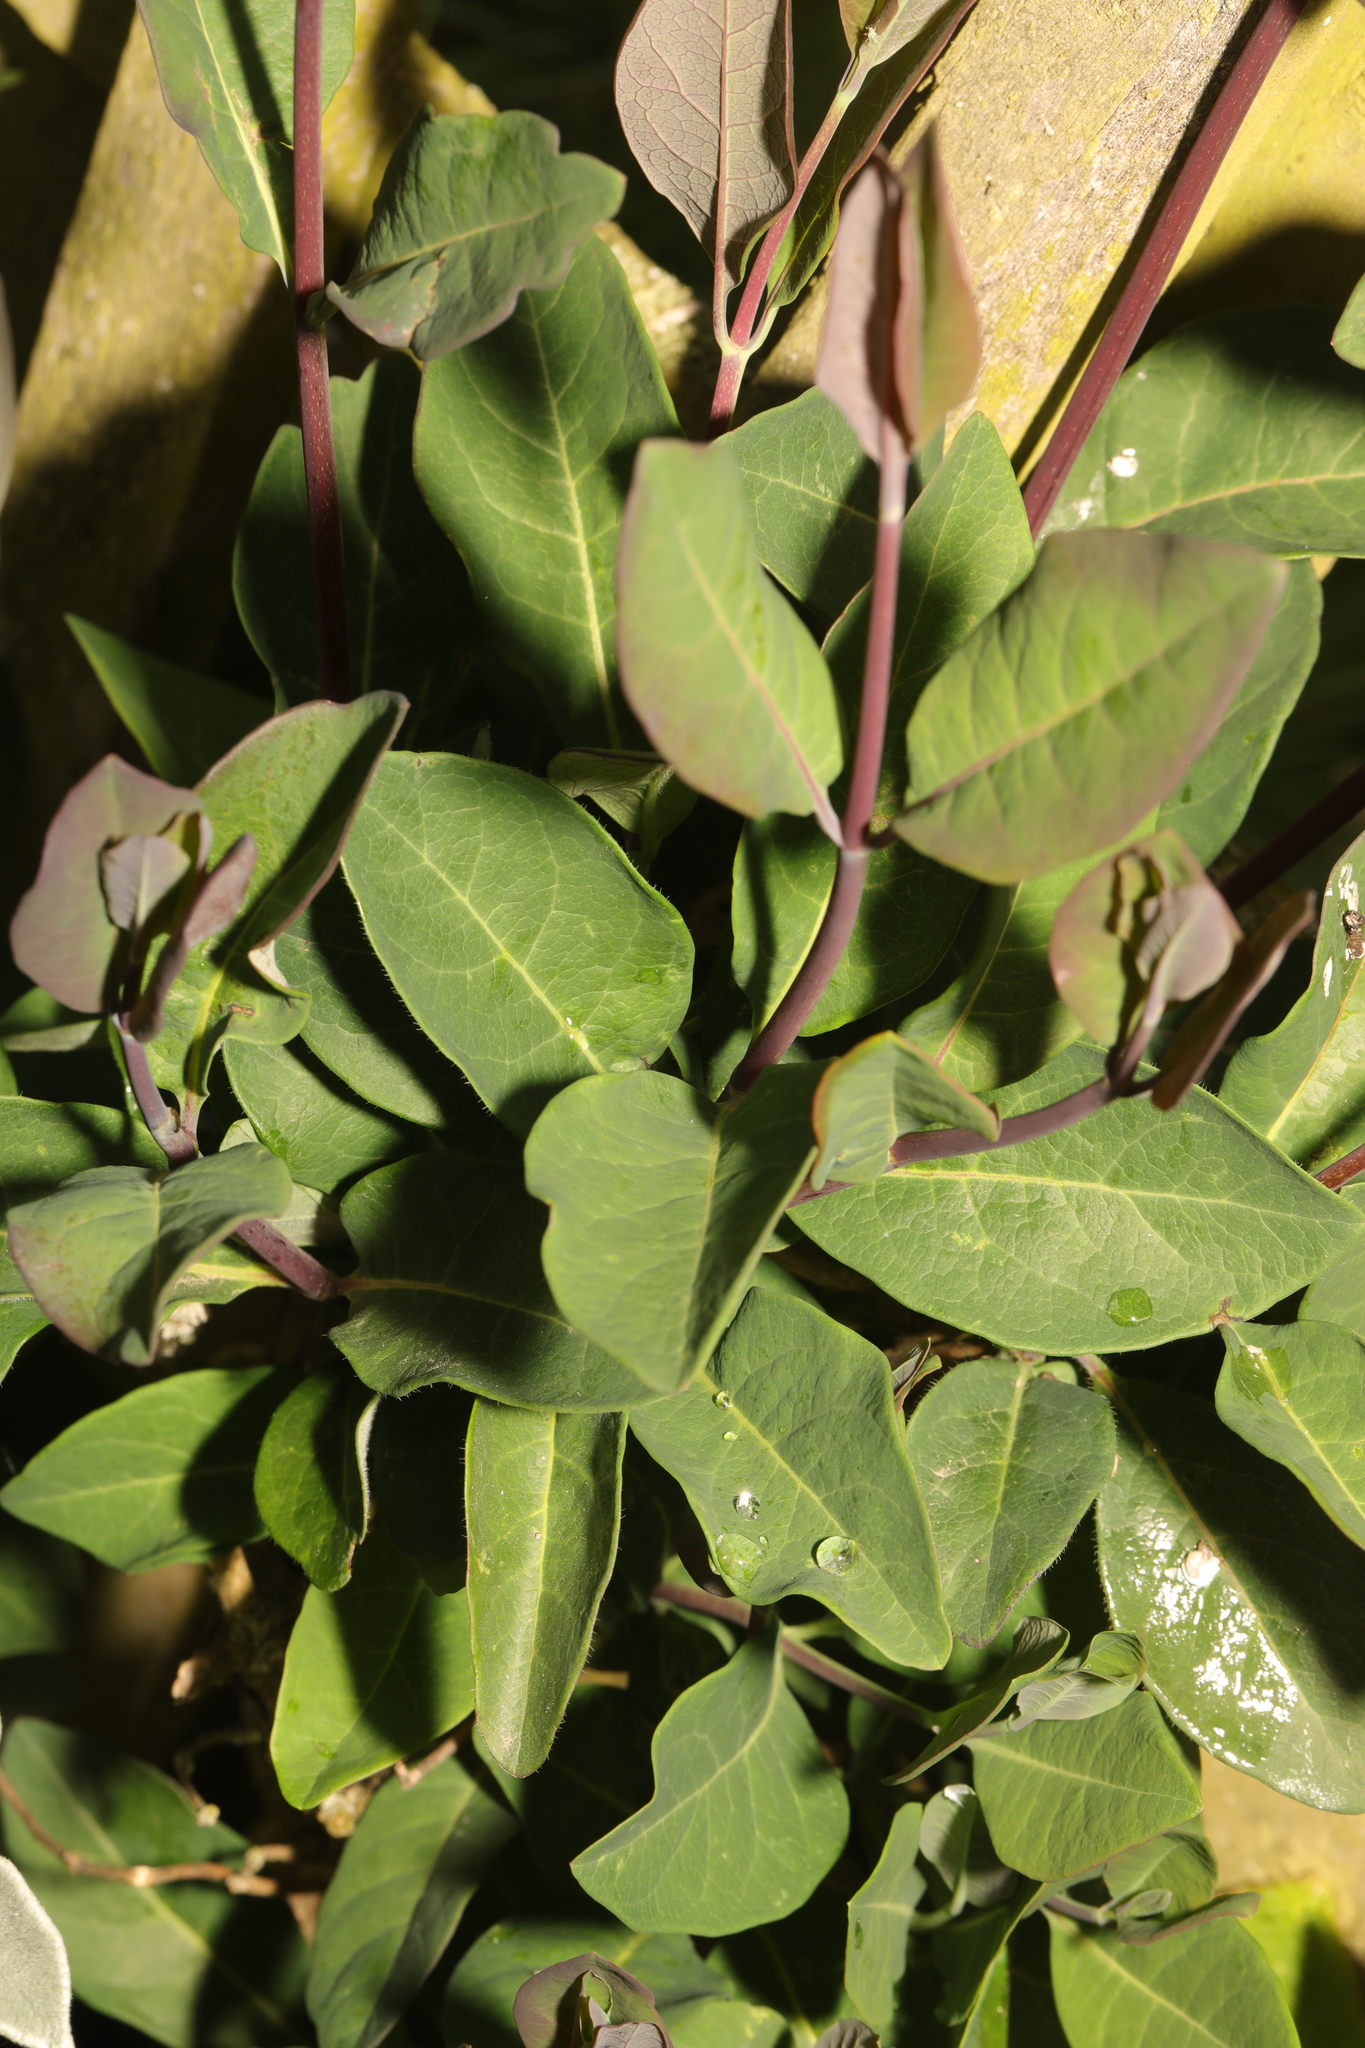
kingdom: Plantae
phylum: Tracheophyta
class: Magnoliopsida
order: Dipsacales
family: Caprifoliaceae
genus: Lonicera
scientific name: Lonicera periclymenum
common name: European honeysuckle
